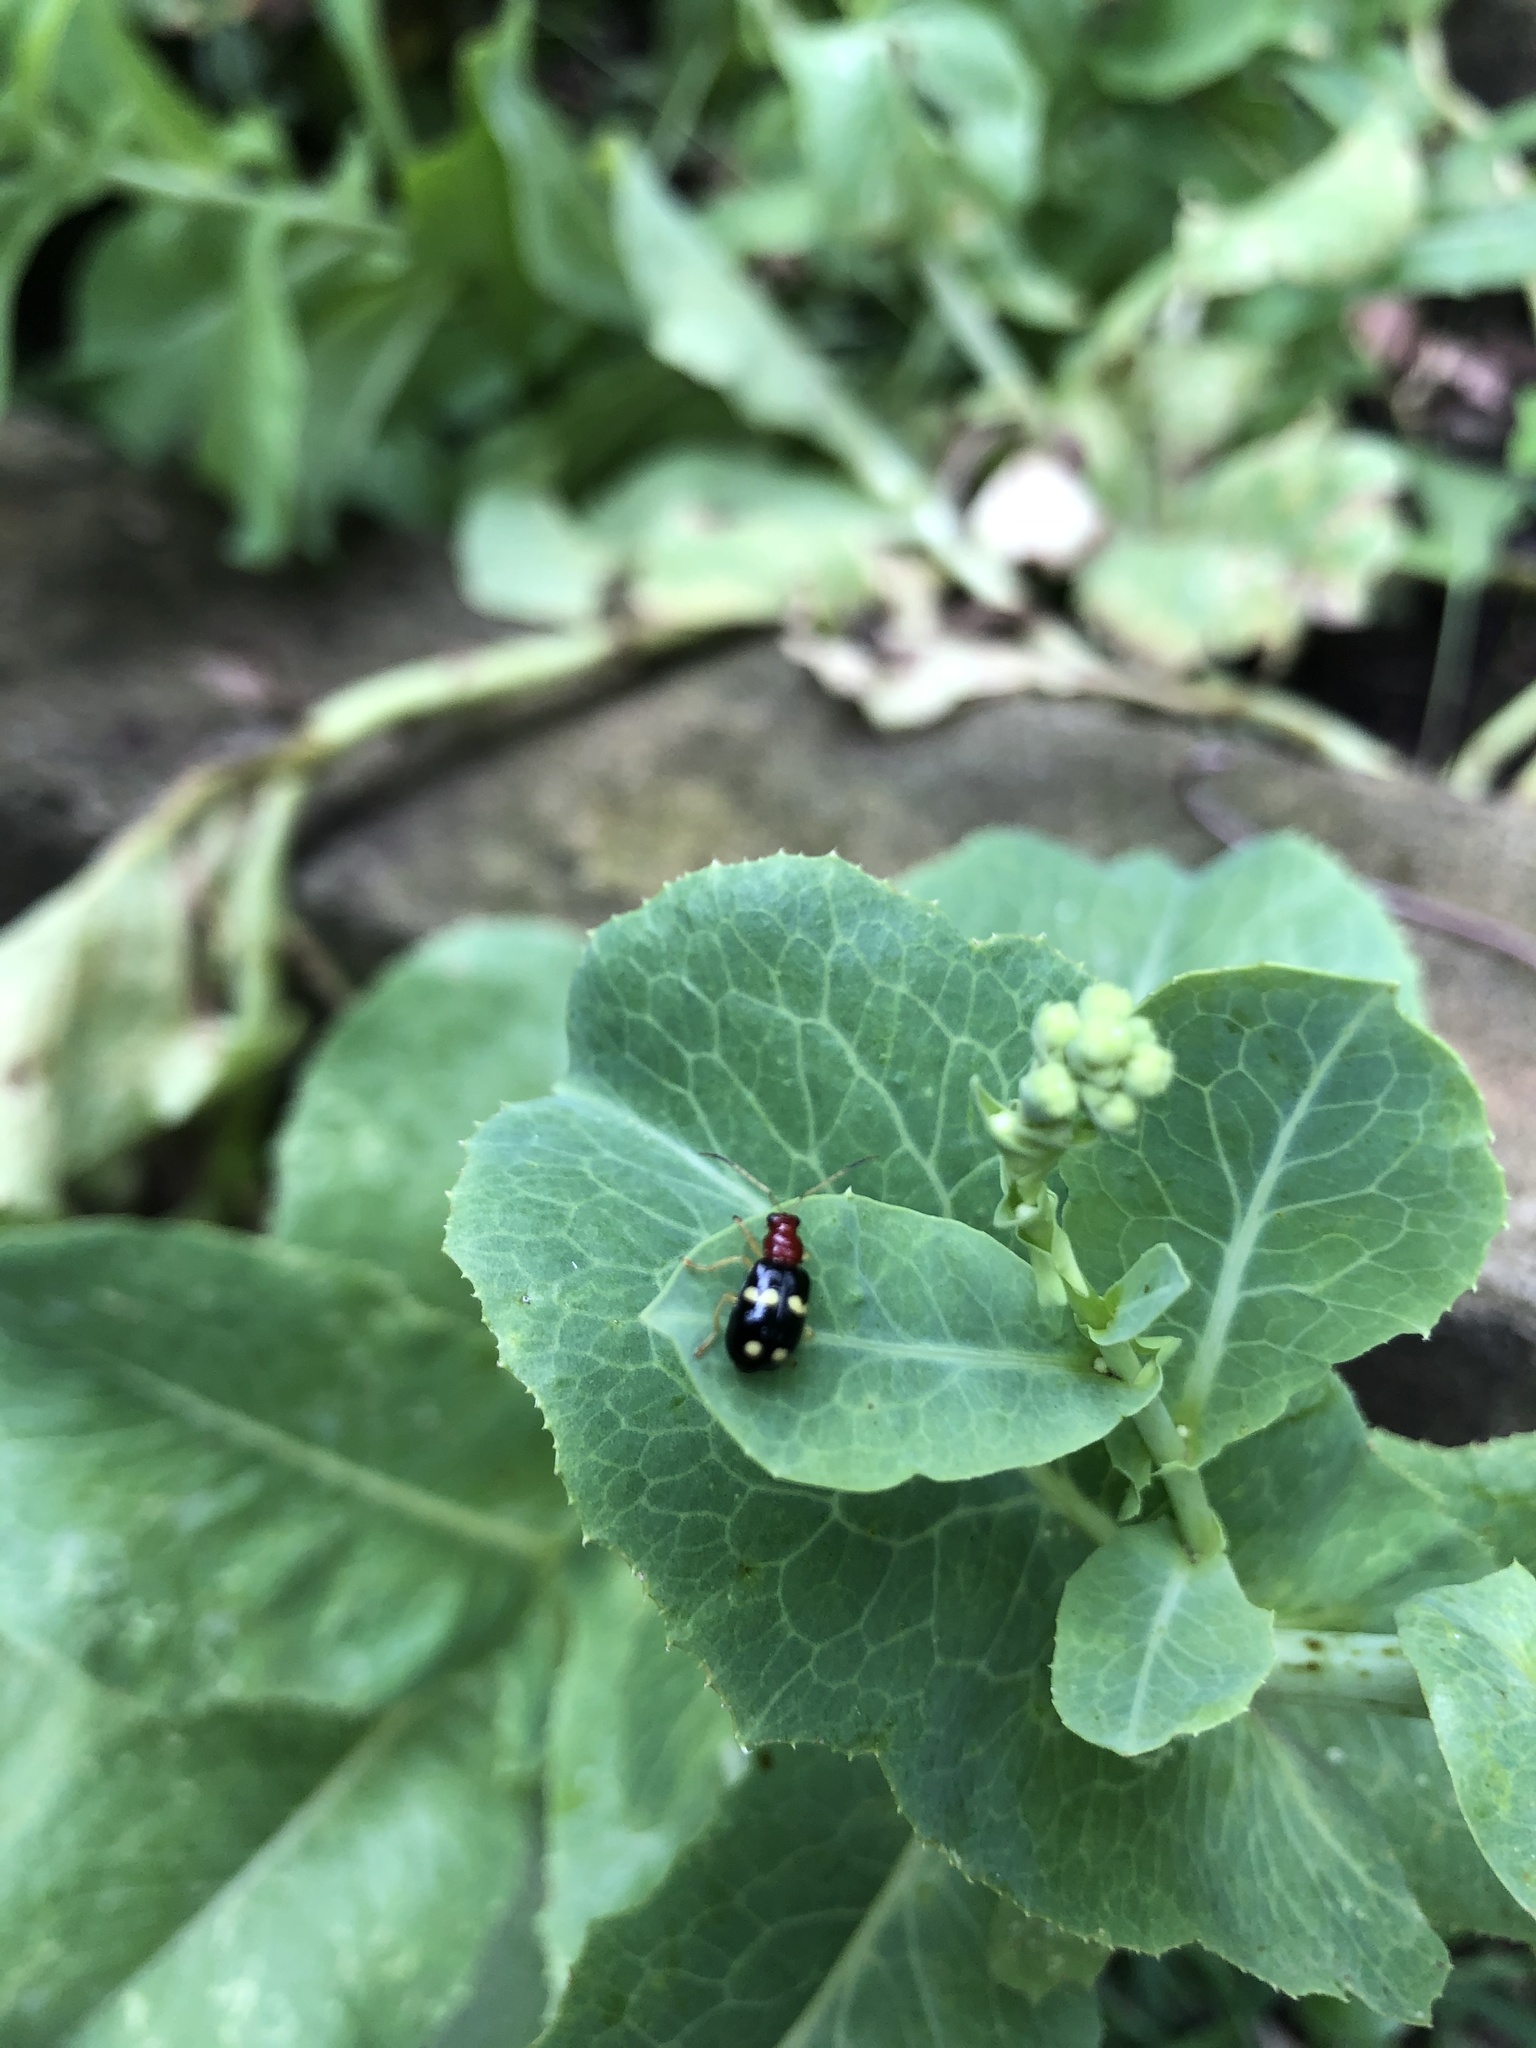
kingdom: Animalia
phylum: Arthropoda
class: Insecta
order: Coleoptera
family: Chrysomelidae
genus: Gynandrobrotica
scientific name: Gynandrobrotica
